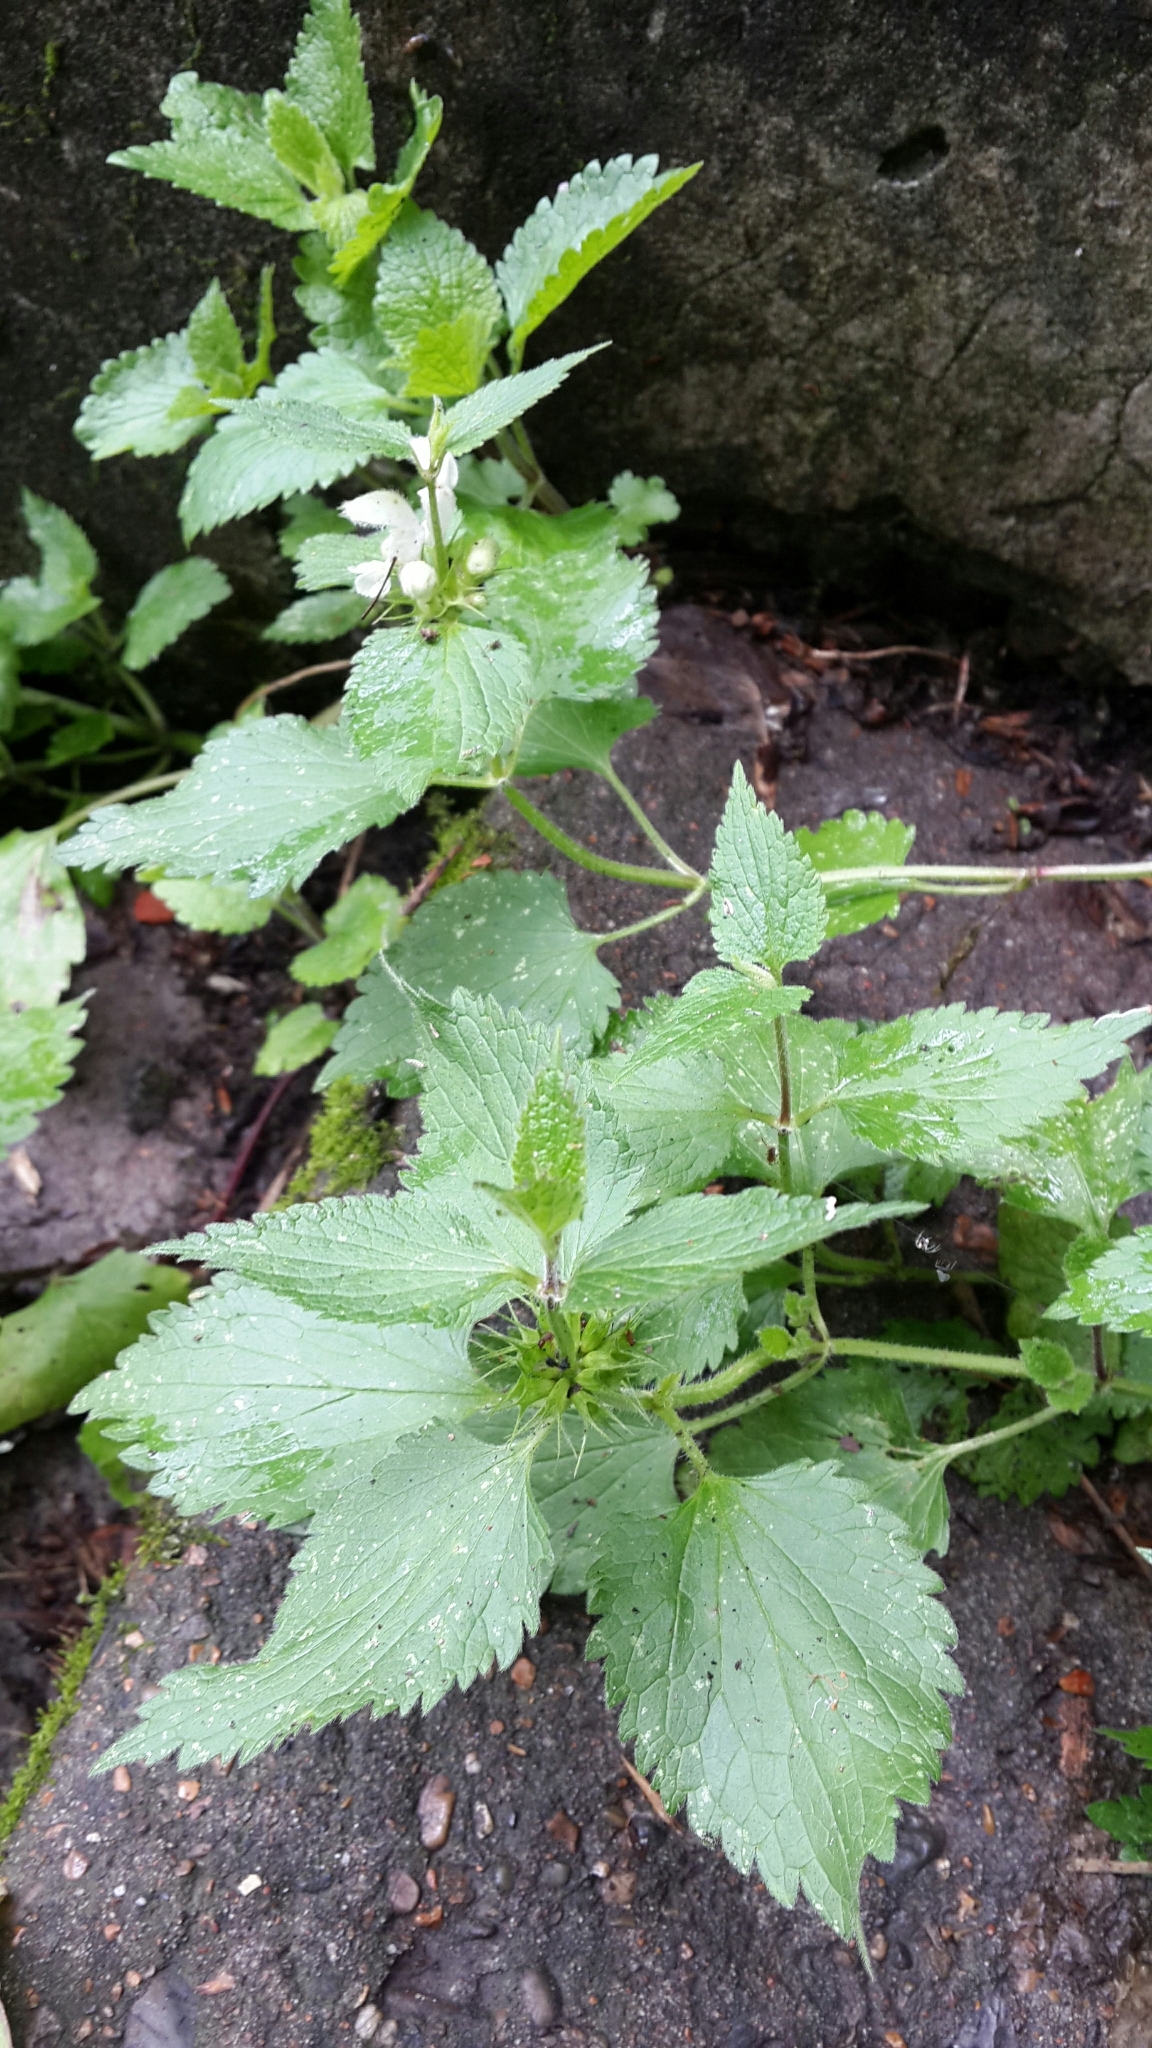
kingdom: Plantae
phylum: Tracheophyta
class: Magnoliopsida
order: Lamiales
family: Lamiaceae
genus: Lamium
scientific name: Lamium album
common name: White dead-nettle
